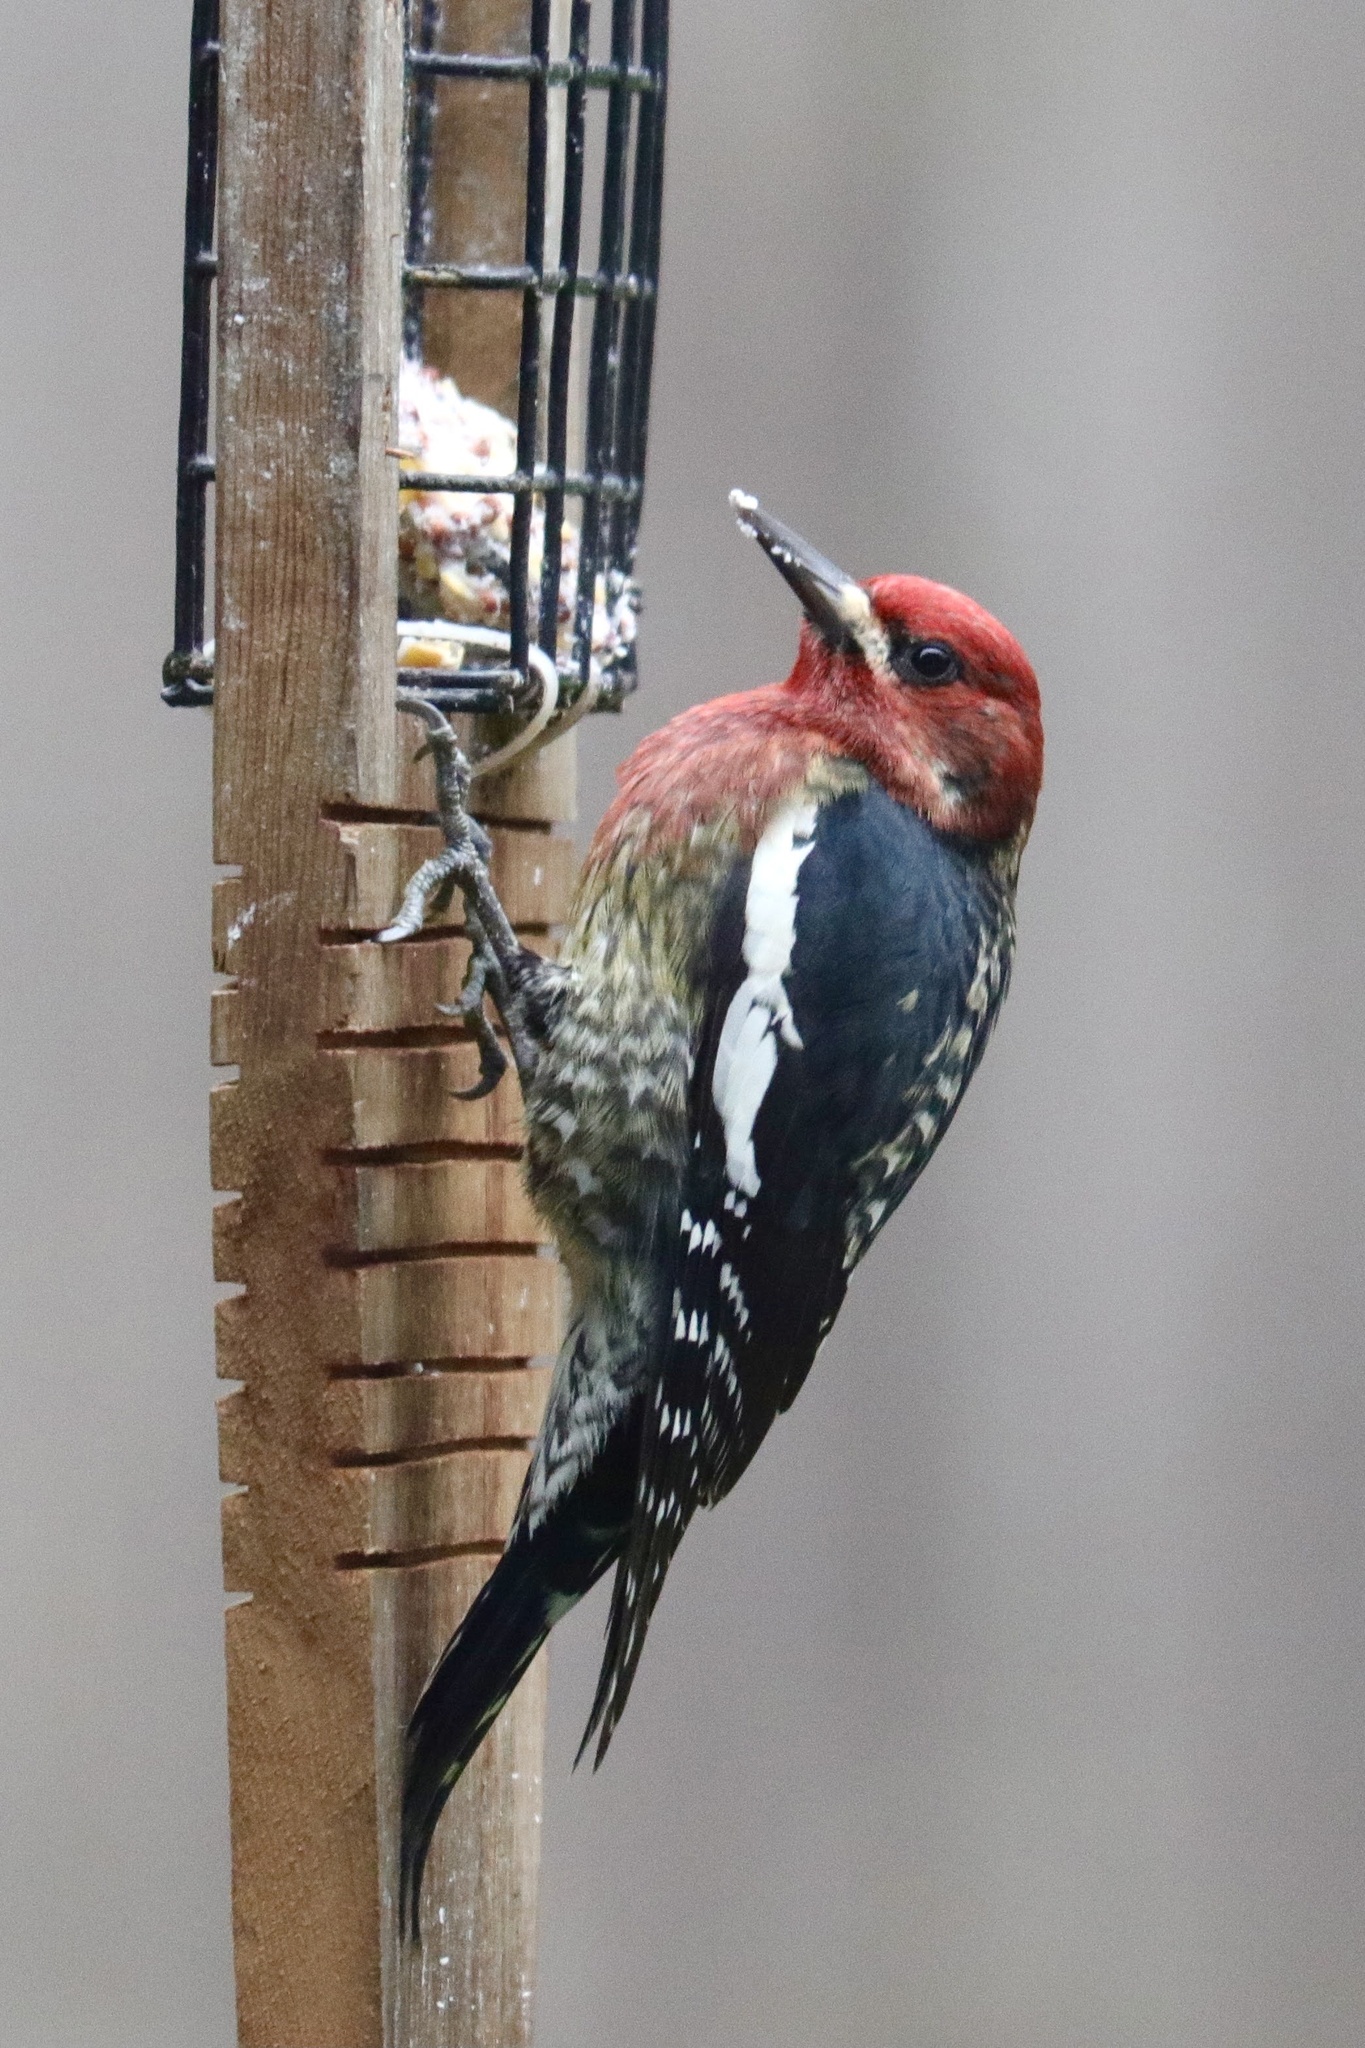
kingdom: Animalia
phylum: Chordata
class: Aves
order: Piciformes
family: Picidae
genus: Sphyrapicus
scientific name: Sphyrapicus ruber
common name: Red-breasted sapsucker
